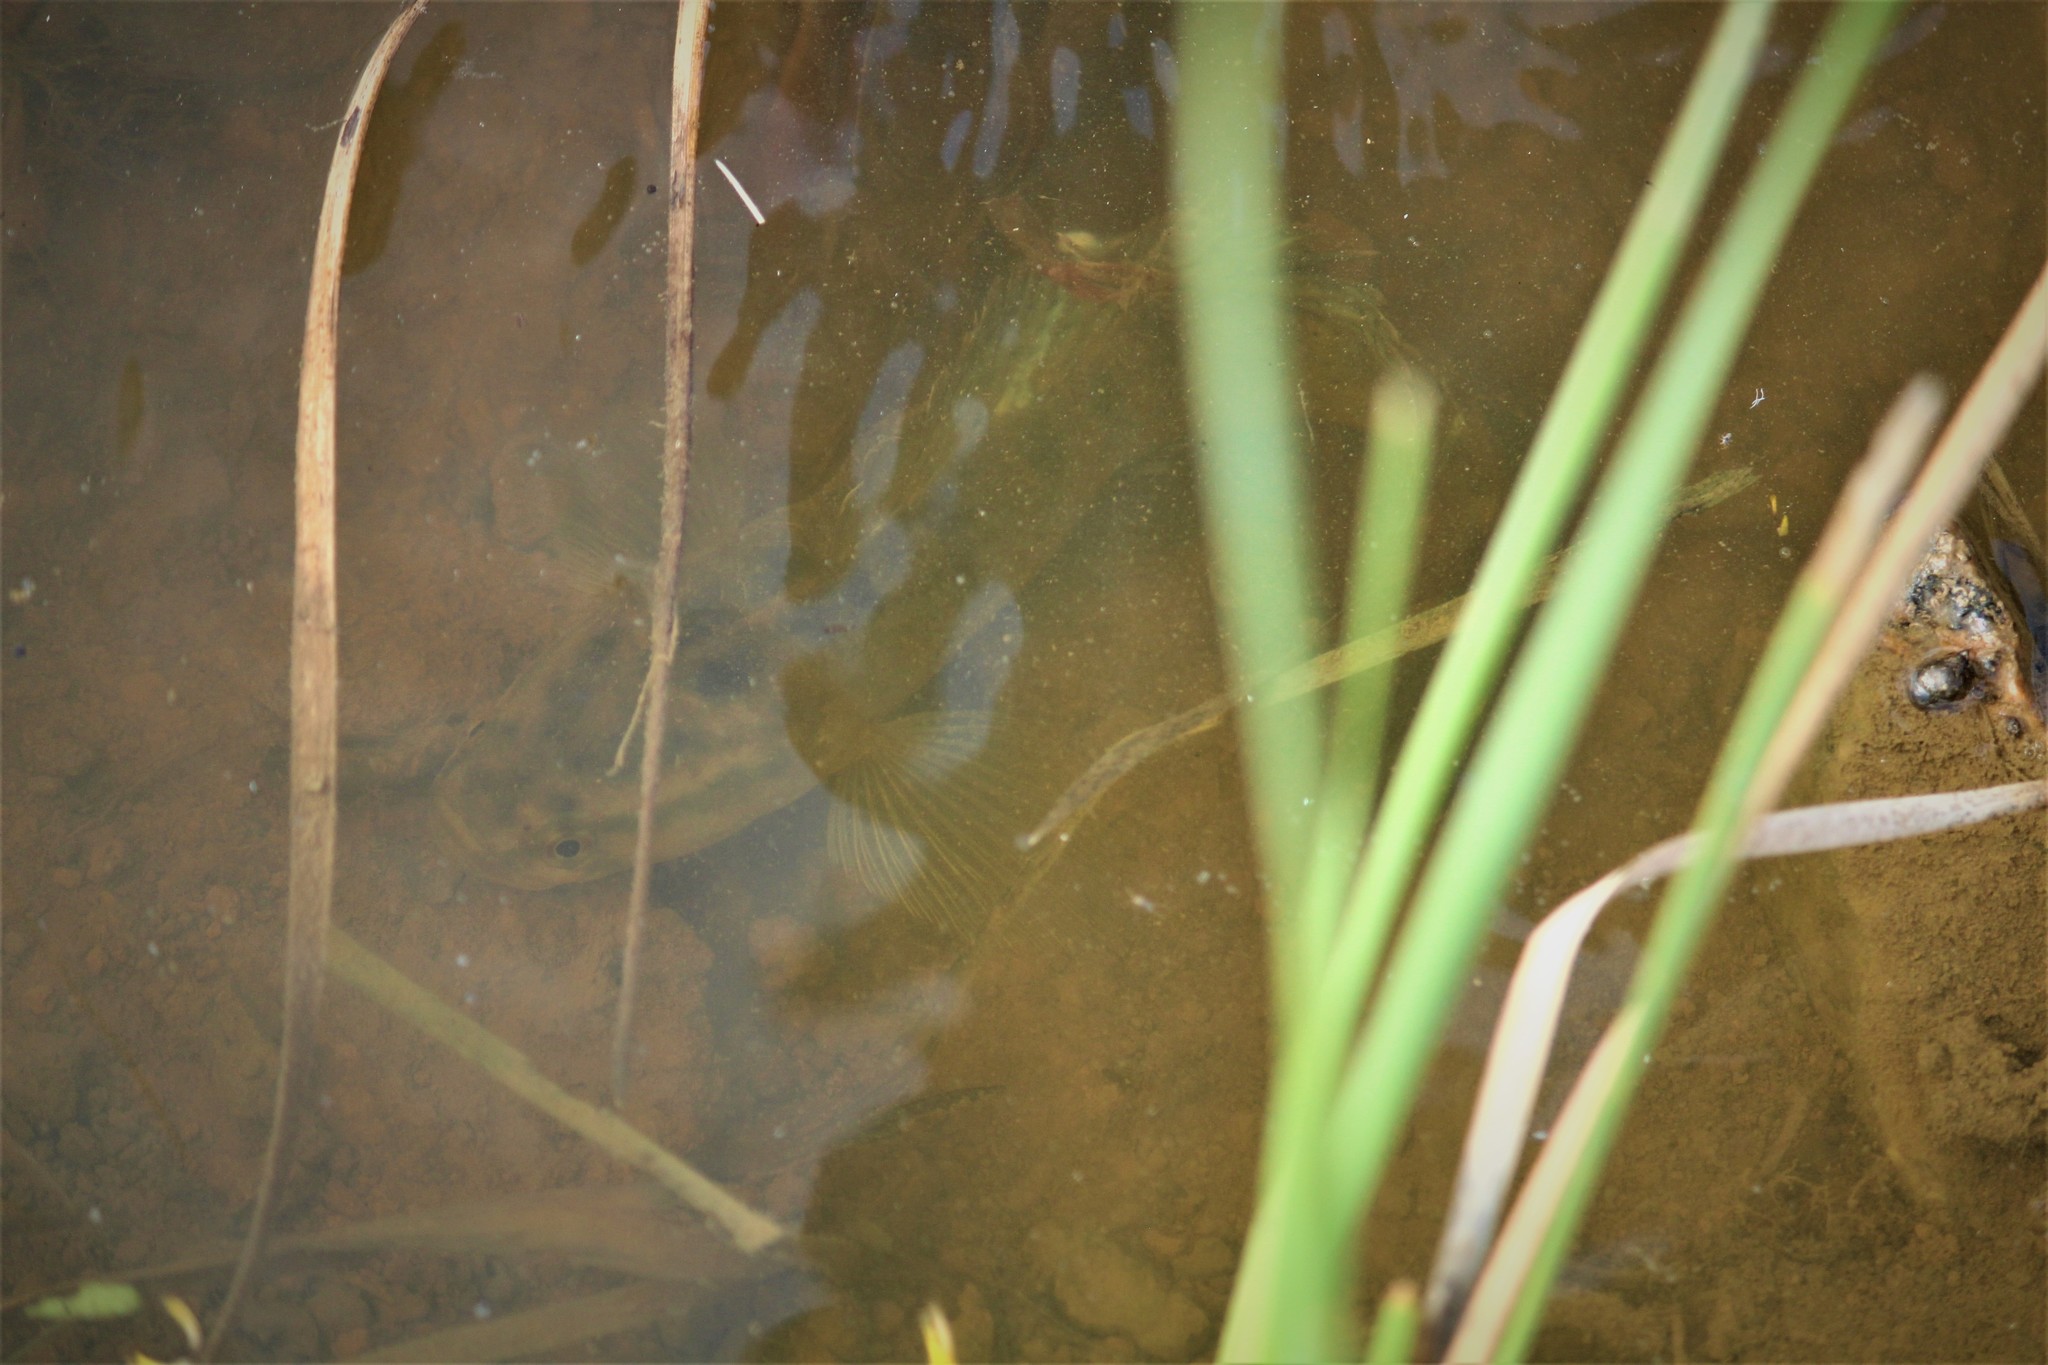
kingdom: Animalia
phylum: Chordata
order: Perciformes
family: Channidae
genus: Channa
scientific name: Channa punctata
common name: Spotted snakehead
